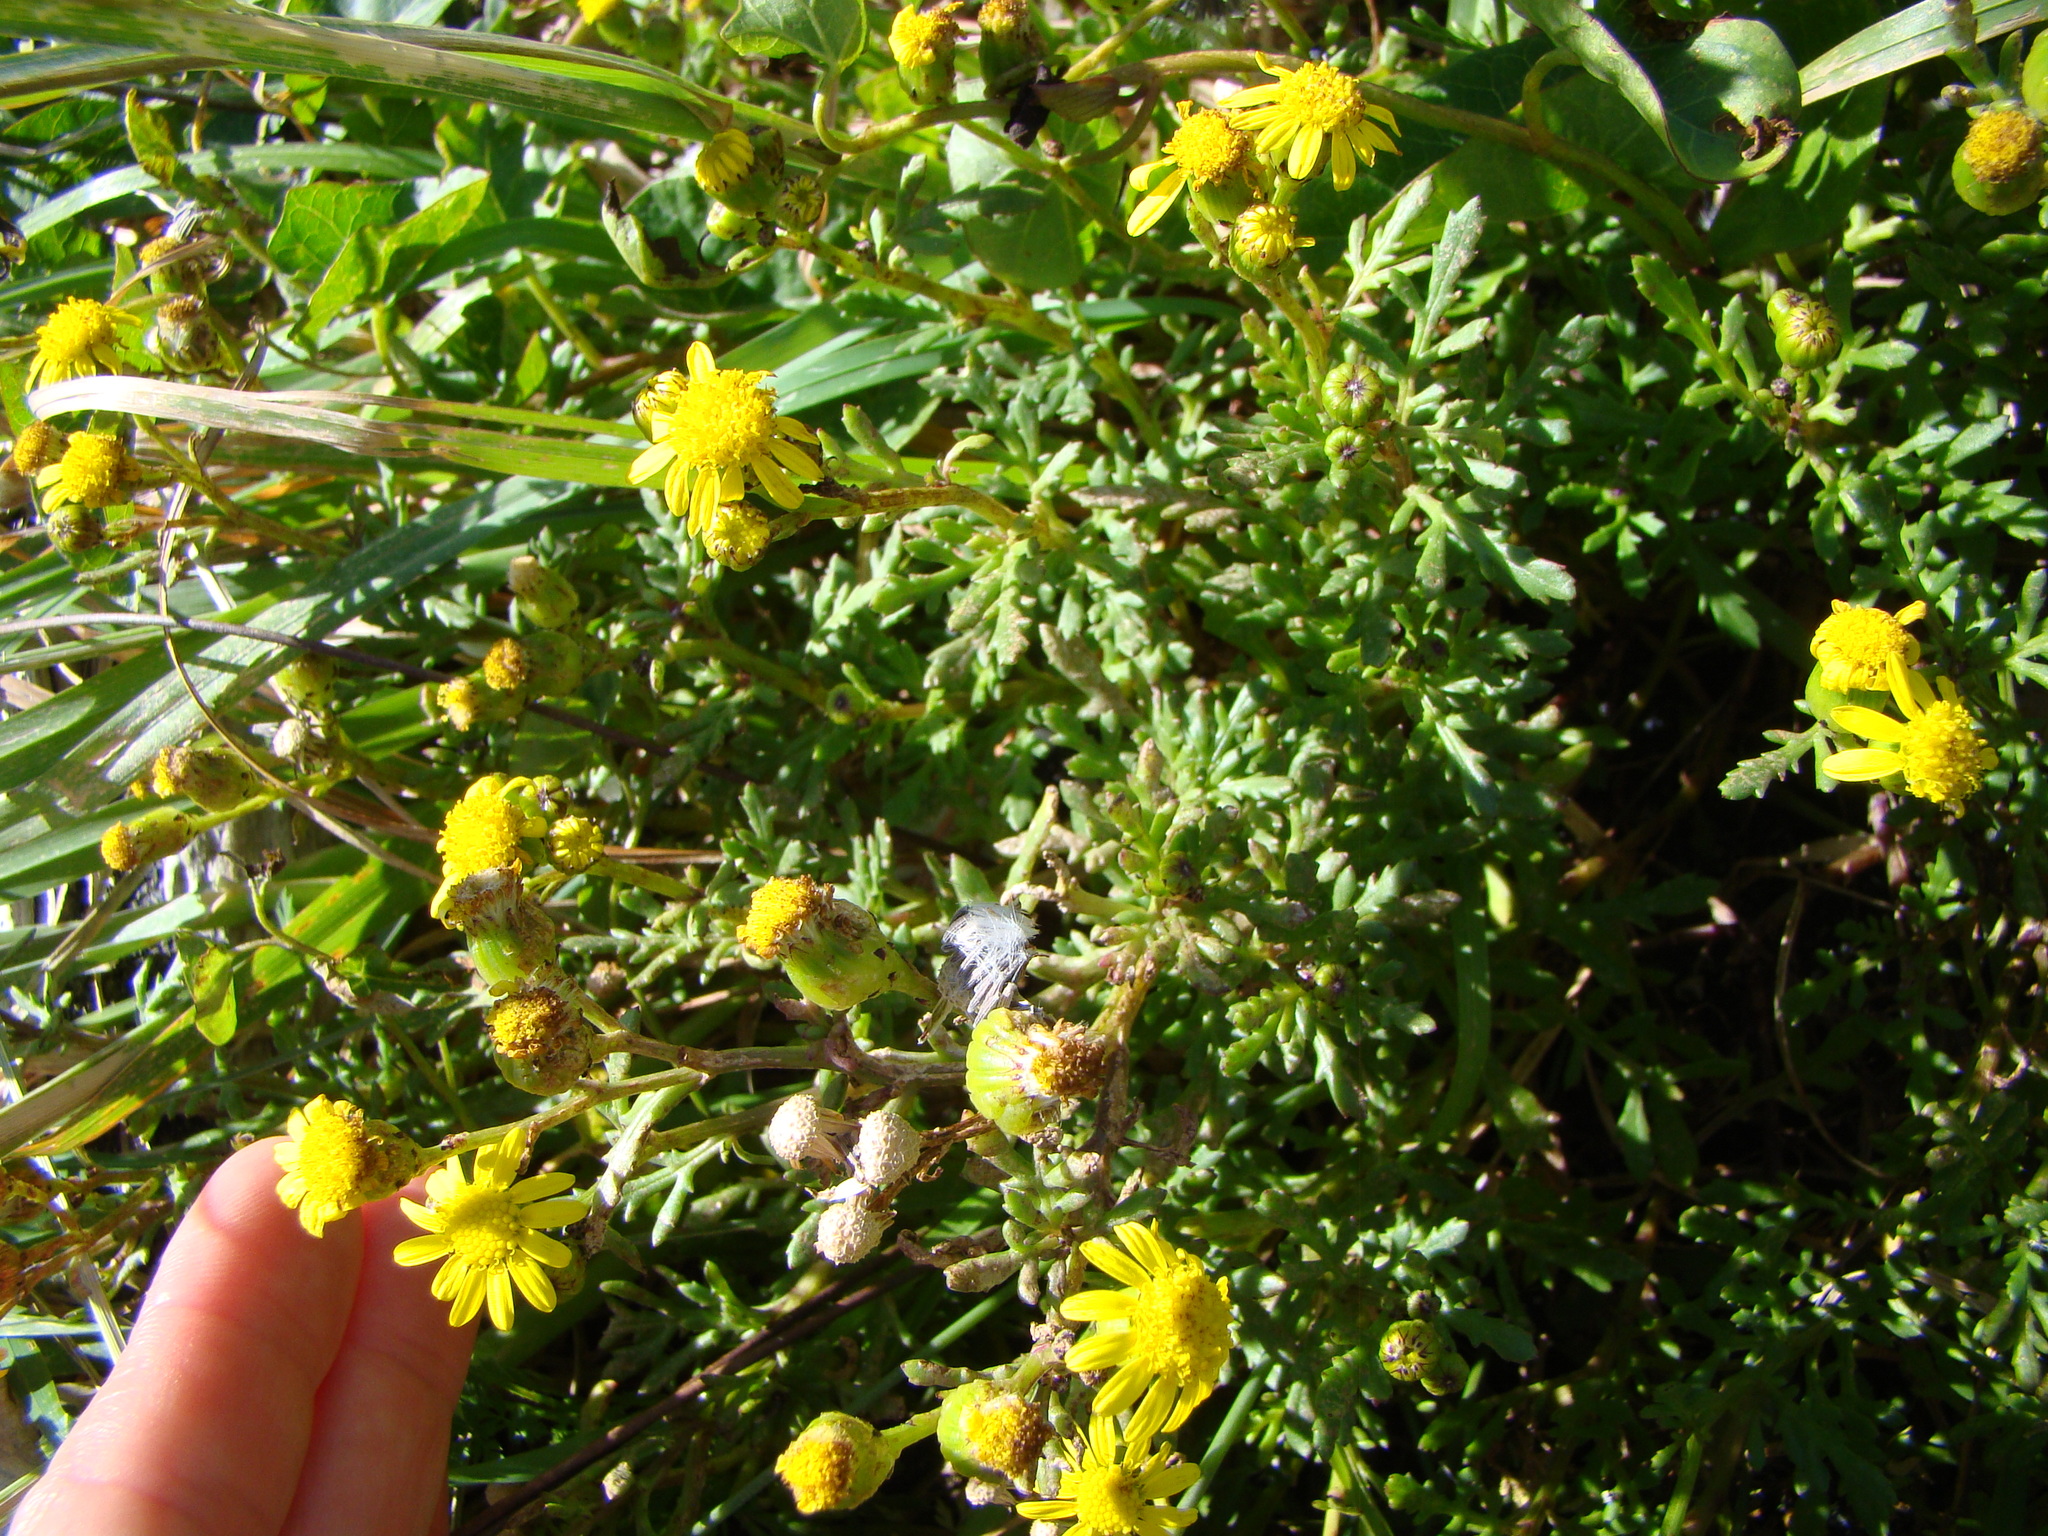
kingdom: Plantae
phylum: Tracheophyta
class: Magnoliopsida
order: Asterales
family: Asteraceae
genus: Senecio
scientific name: Senecio lautus
